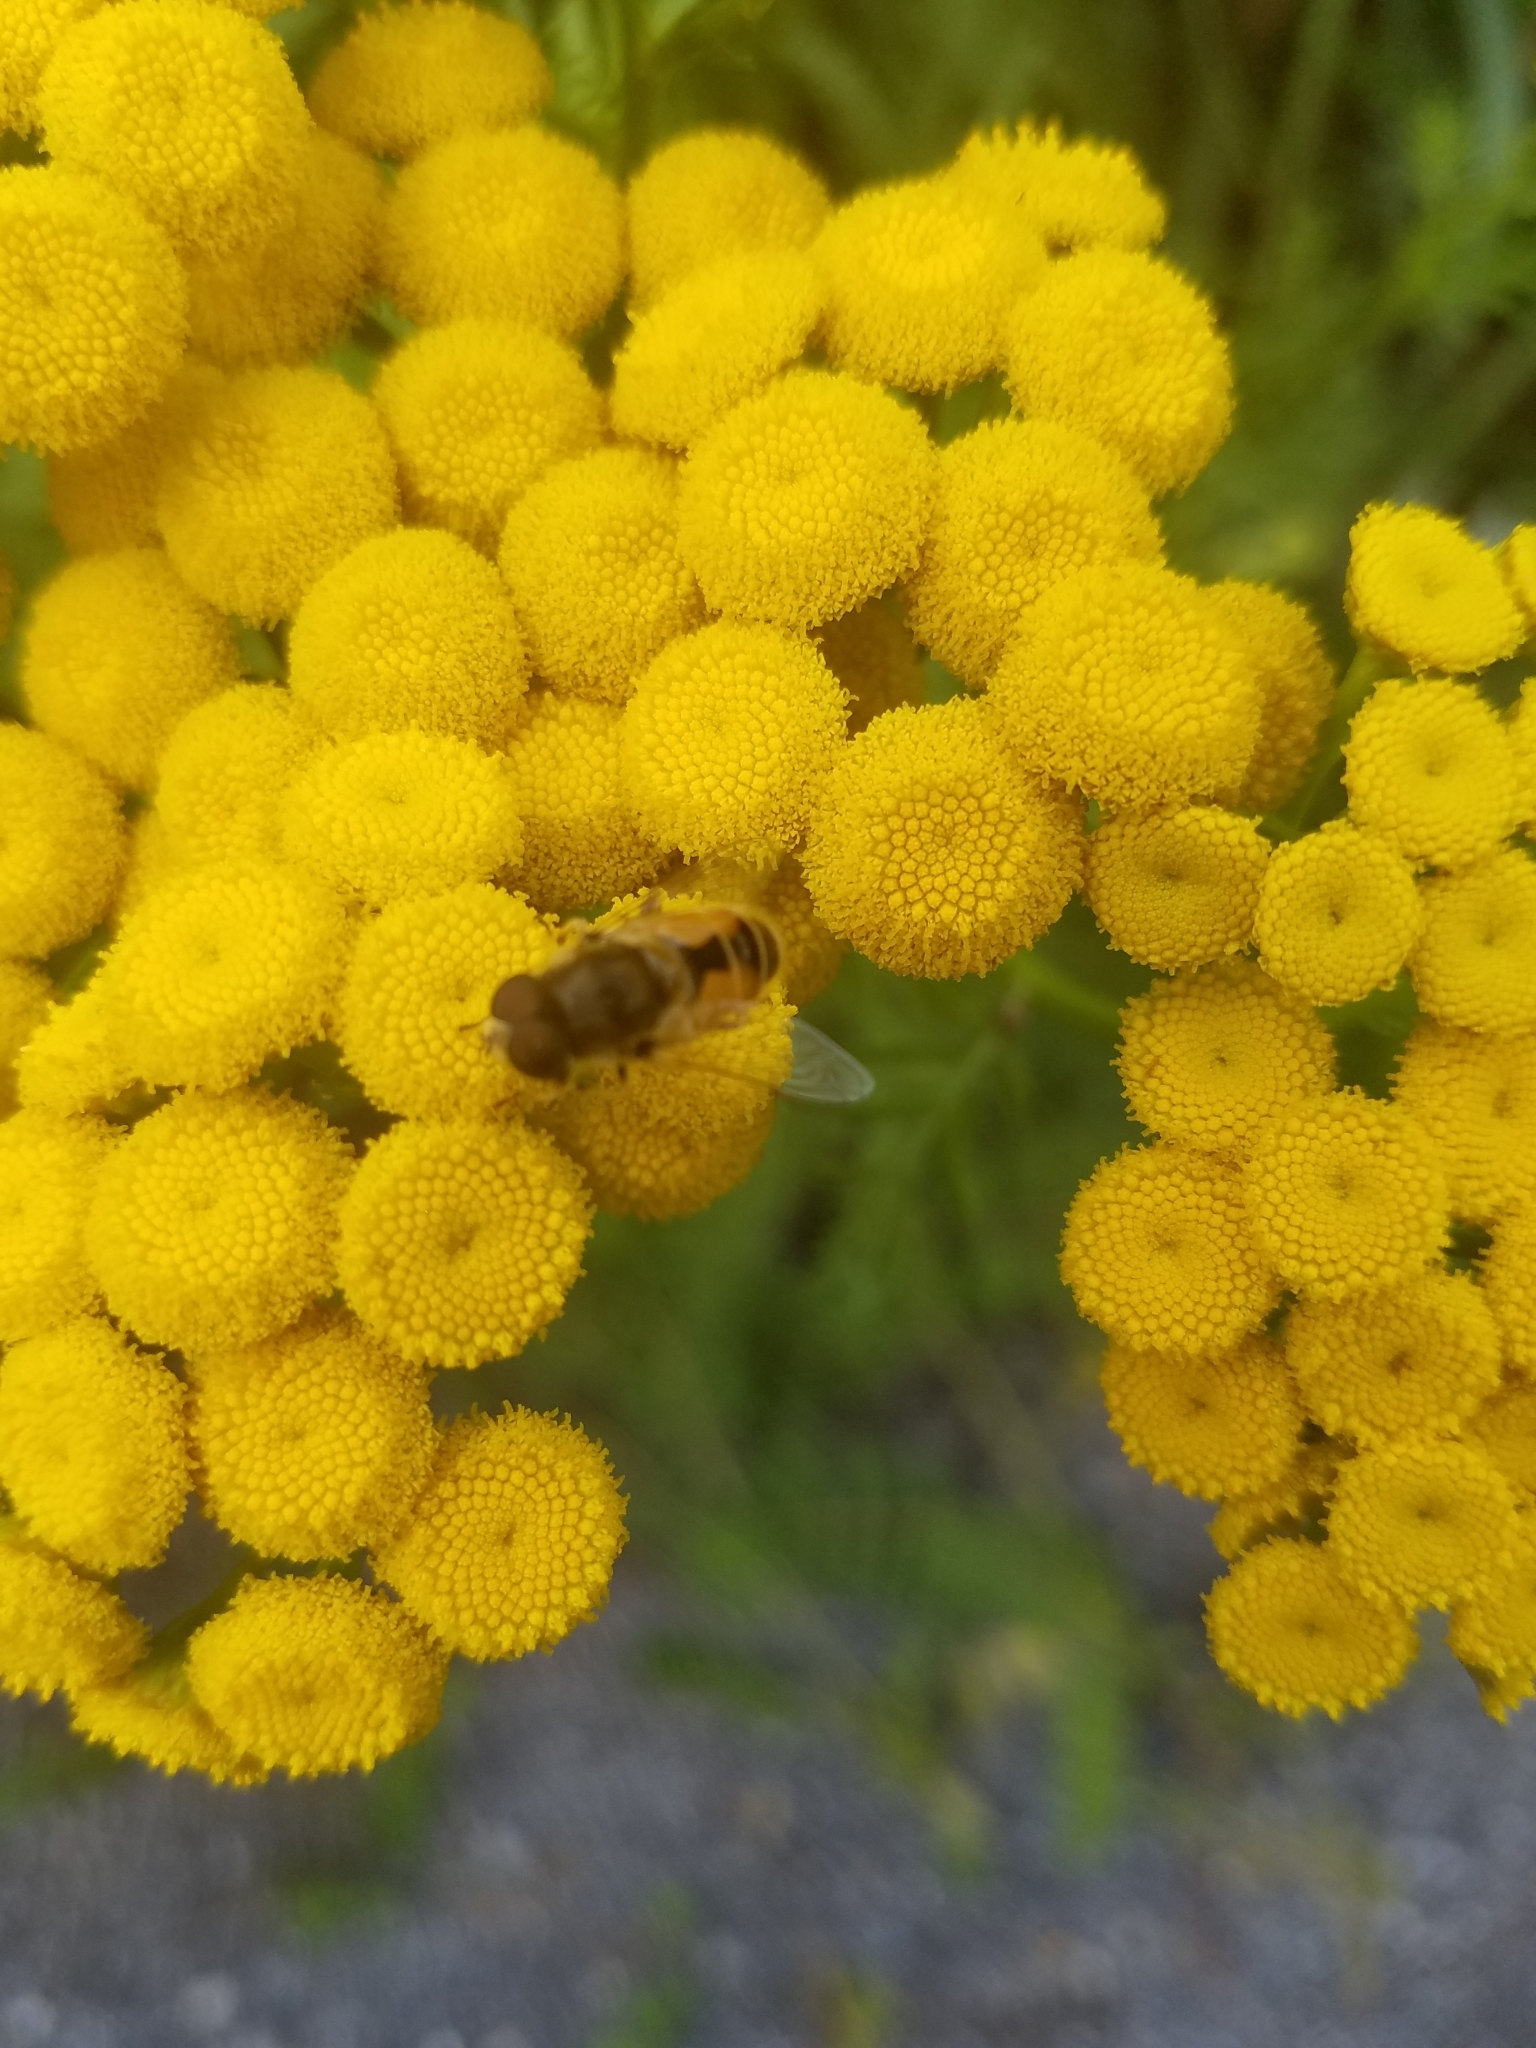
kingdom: Animalia
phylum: Arthropoda
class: Insecta
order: Diptera
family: Syrphidae
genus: Eristalis
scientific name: Eristalis arbustorum
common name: Hover fly
